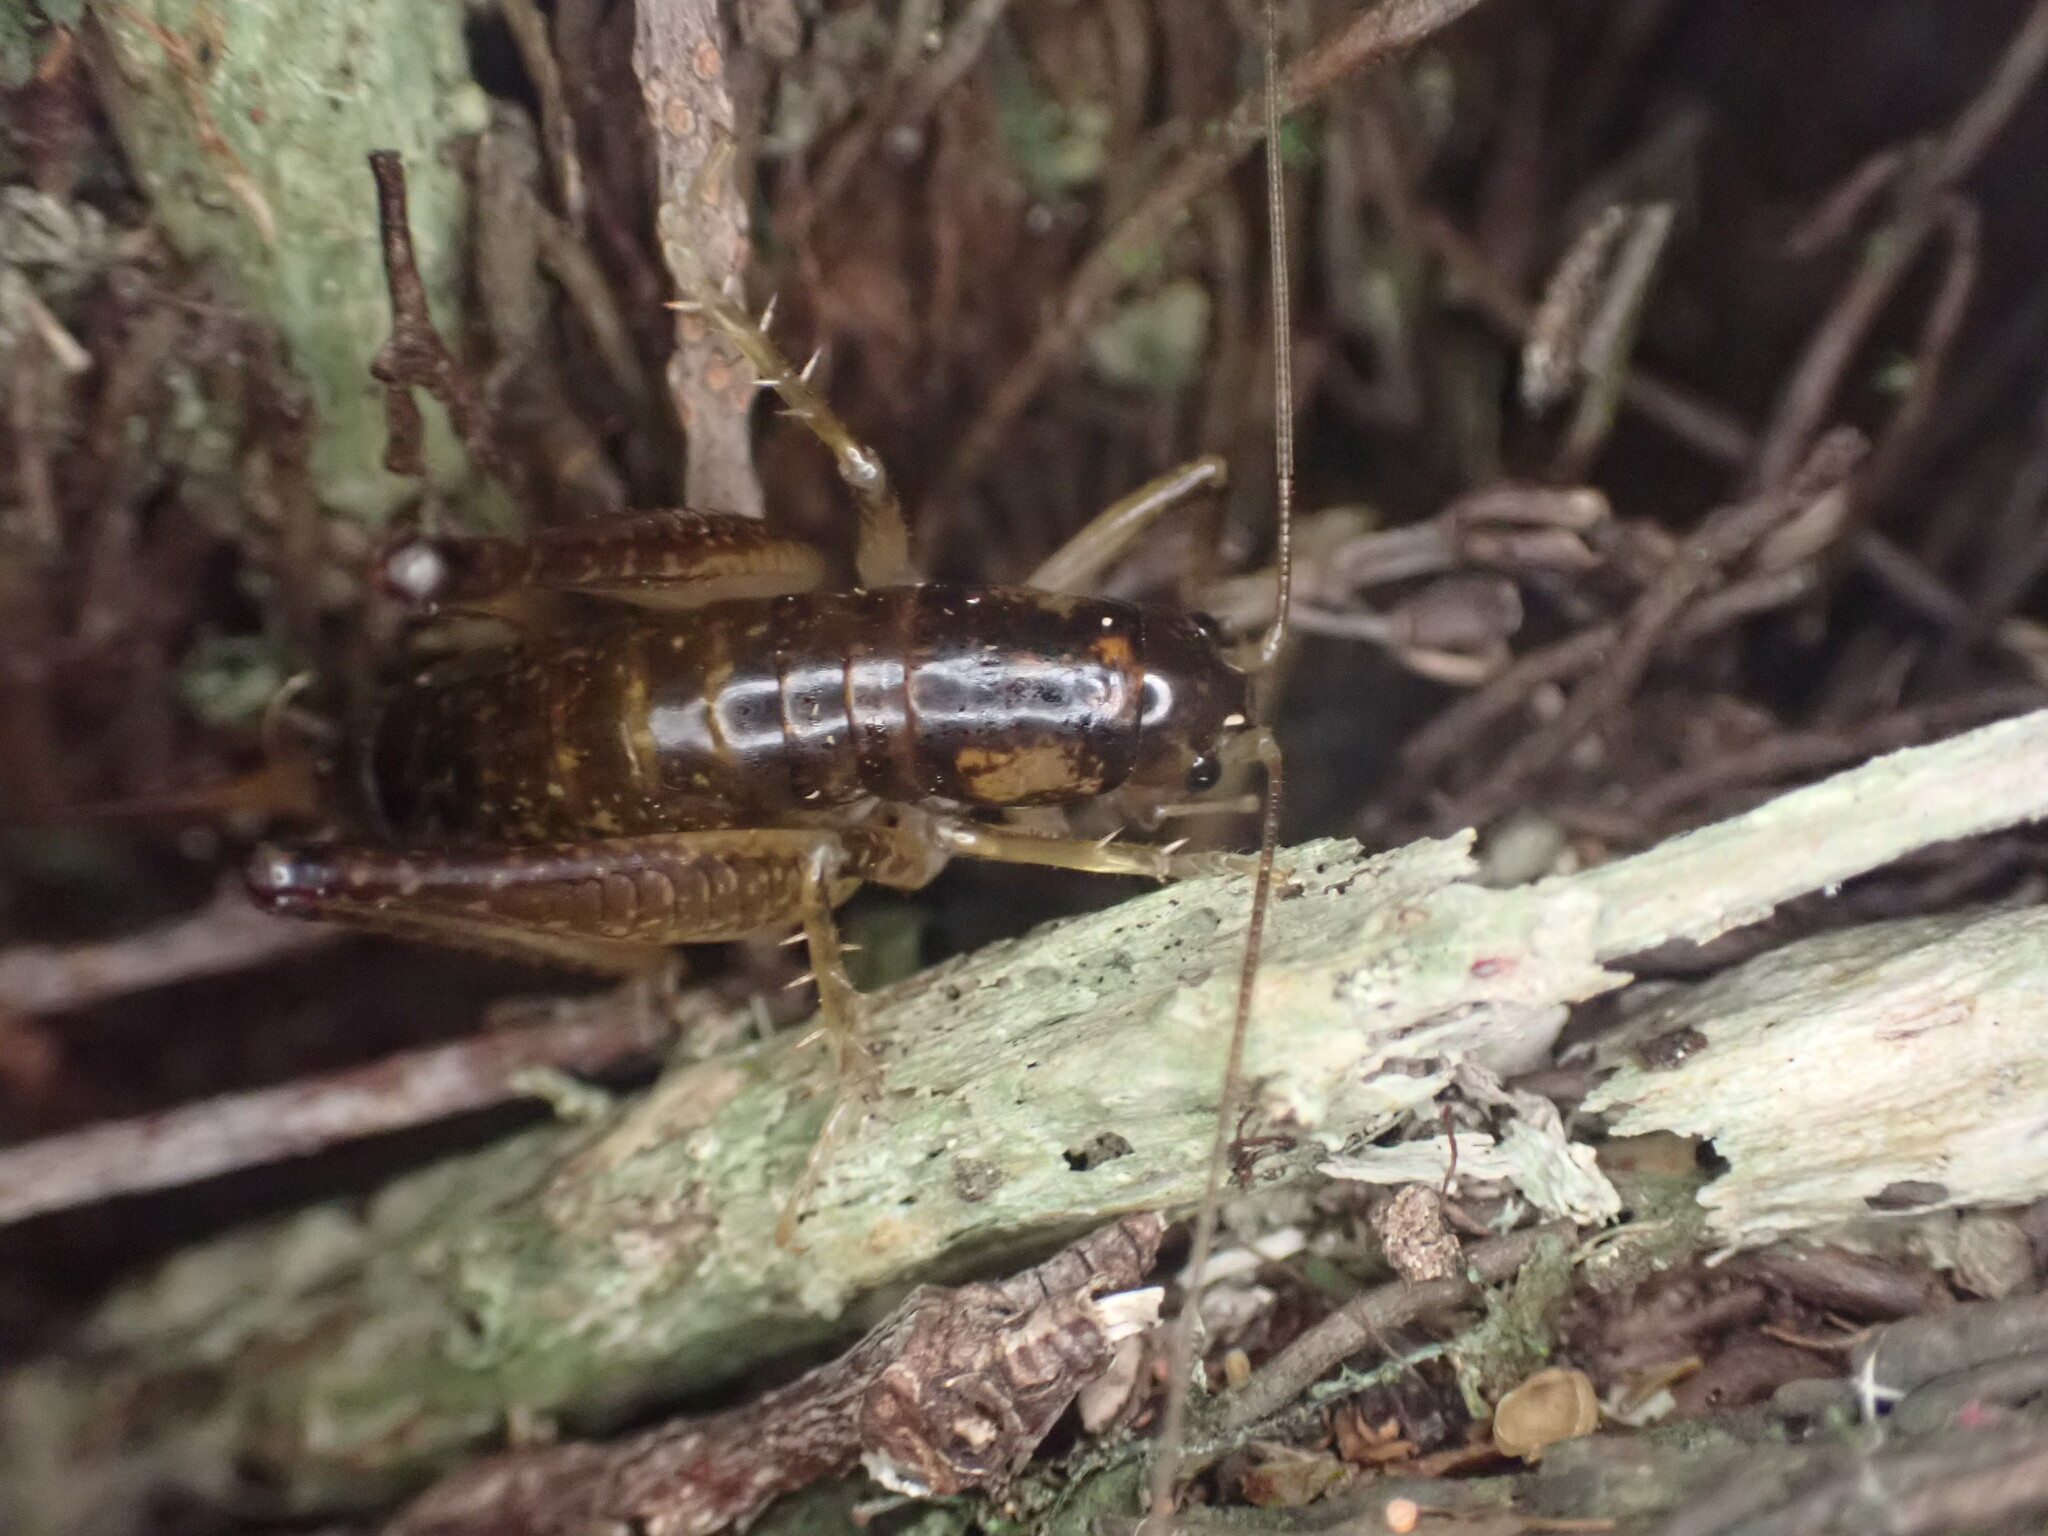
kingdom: Animalia
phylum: Arthropoda
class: Insecta
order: Orthoptera
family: Anostostomatidae
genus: Hemiandrus
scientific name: Hemiandrus maculifrons
